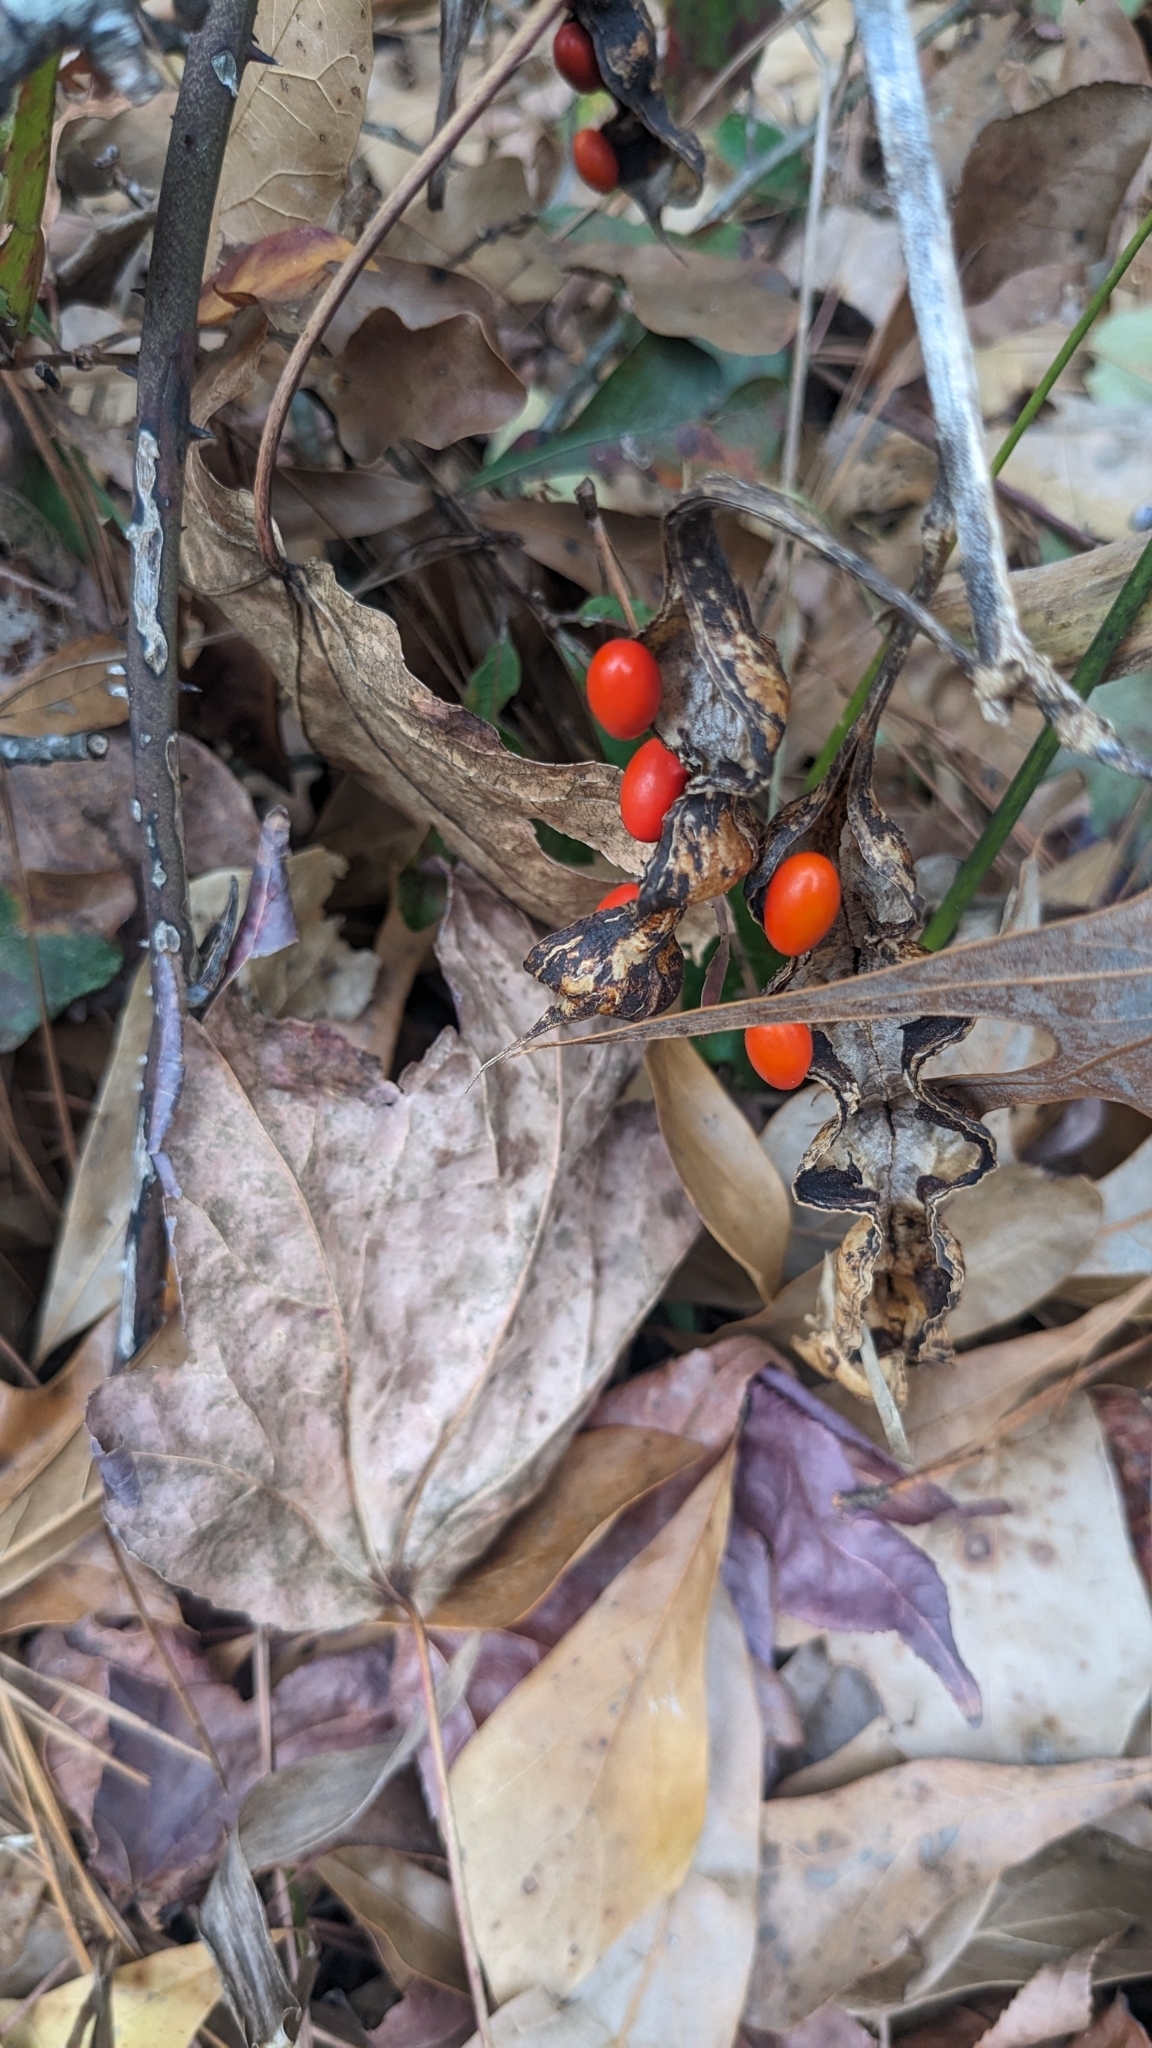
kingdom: Plantae
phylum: Tracheophyta
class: Magnoliopsida
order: Fabales
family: Fabaceae
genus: Erythrina
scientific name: Erythrina herbacea
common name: Coral-bean
